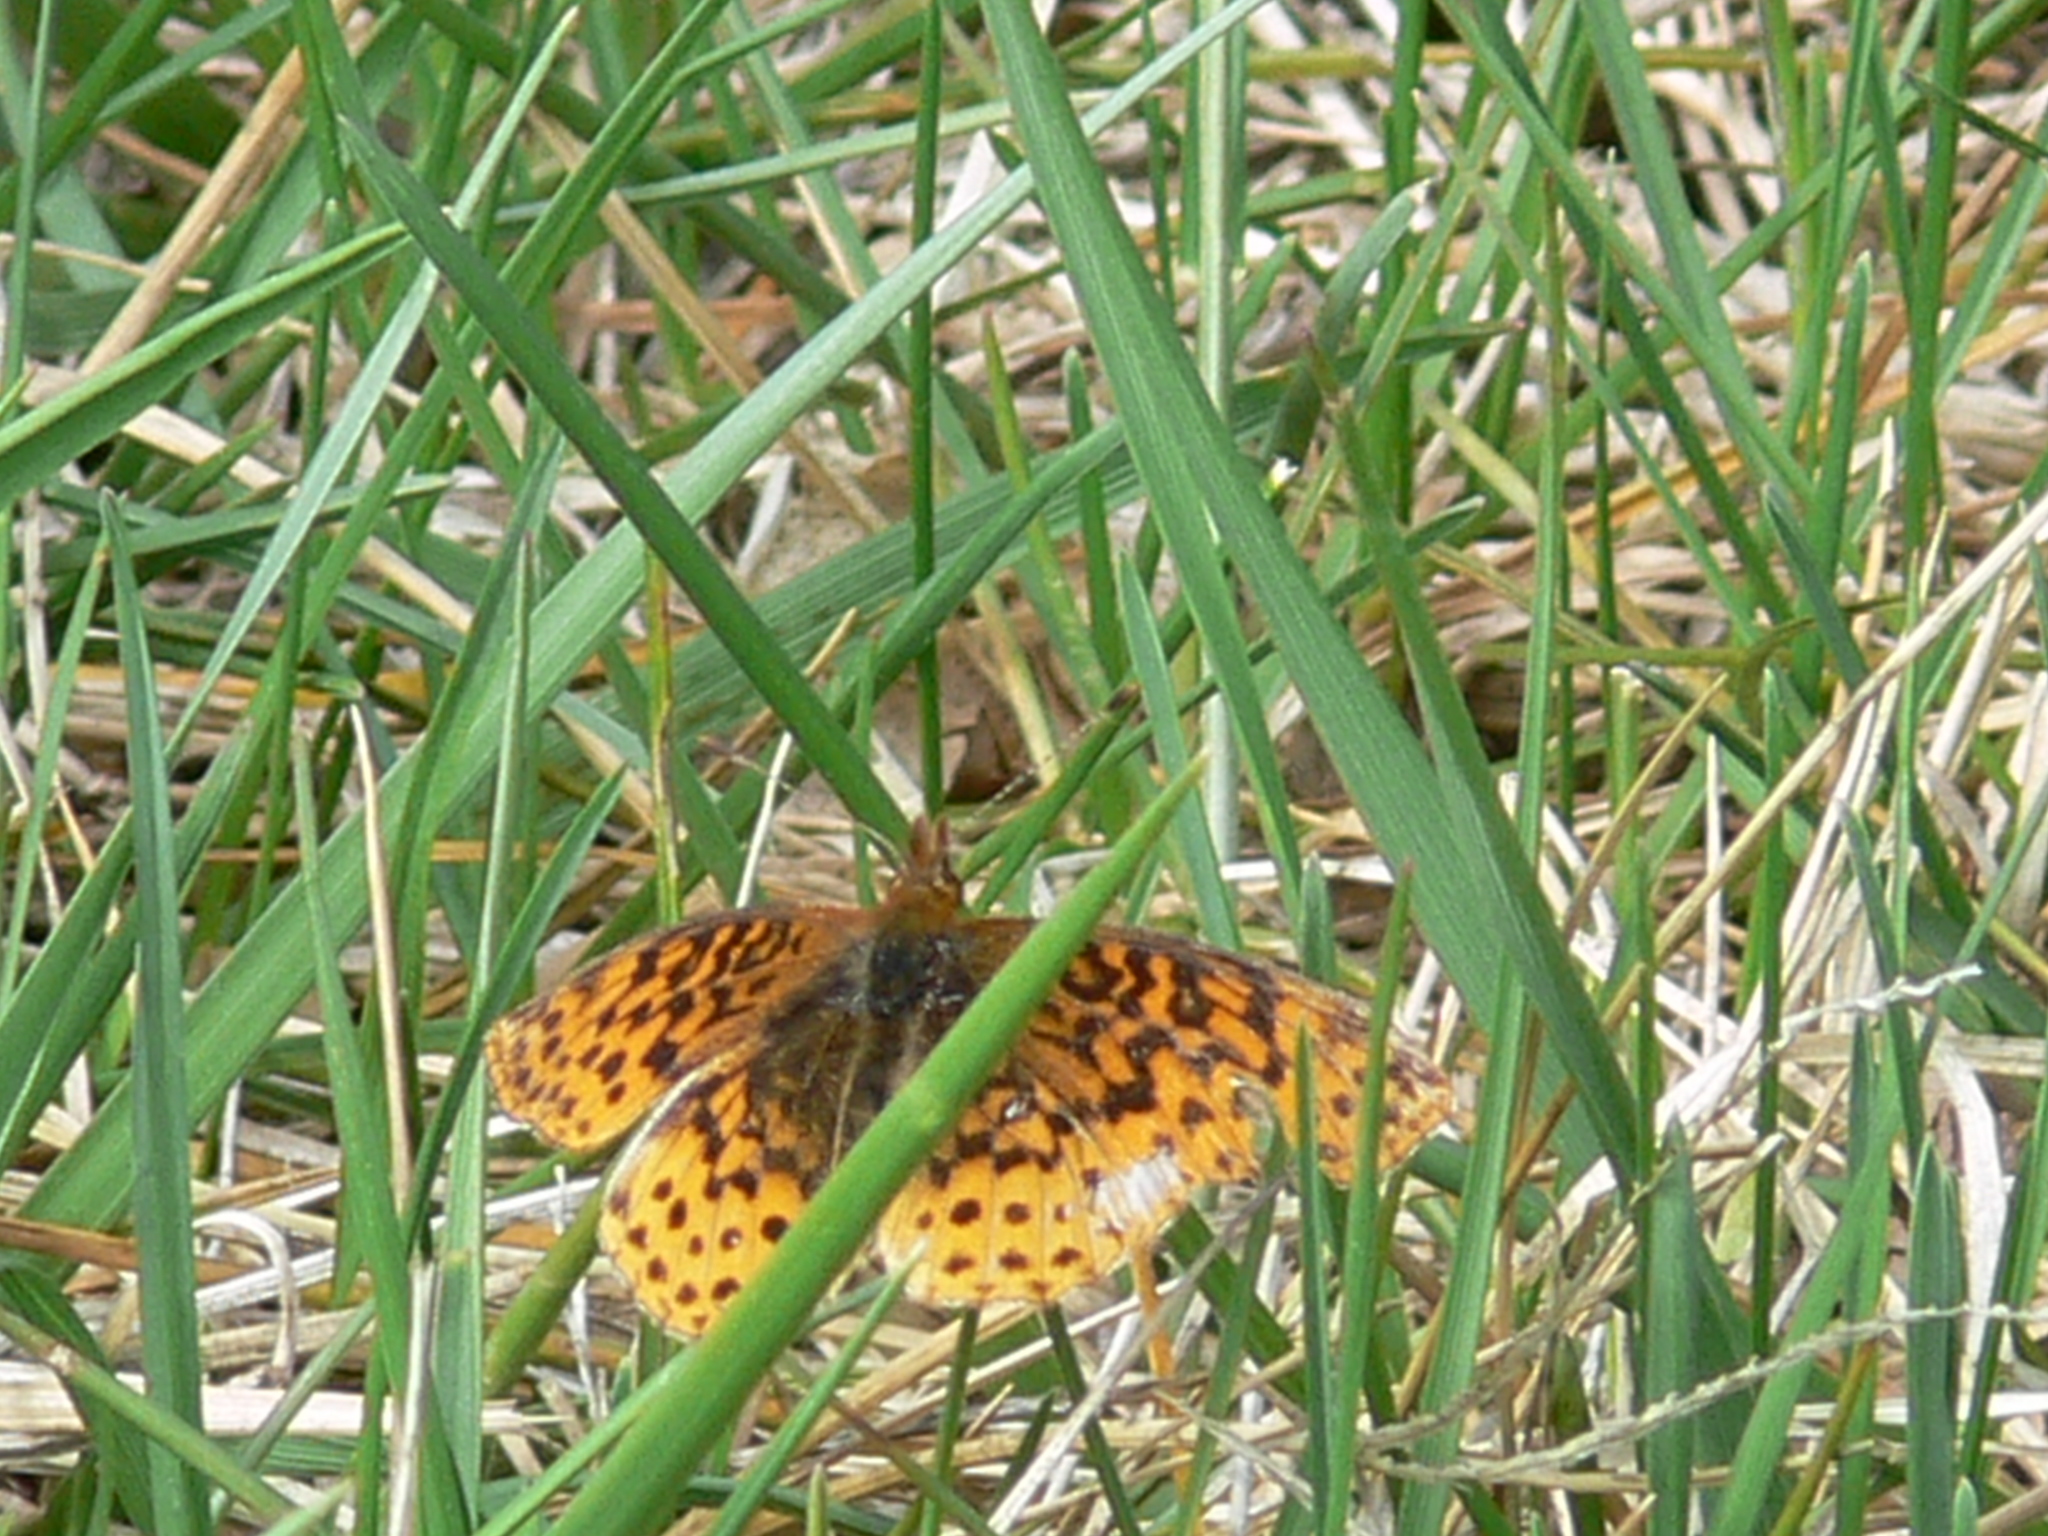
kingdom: Animalia
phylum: Arthropoda
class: Insecta
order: Lepidoptera
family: Nymphalidae
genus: Clossiana
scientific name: Clossiana toddi
